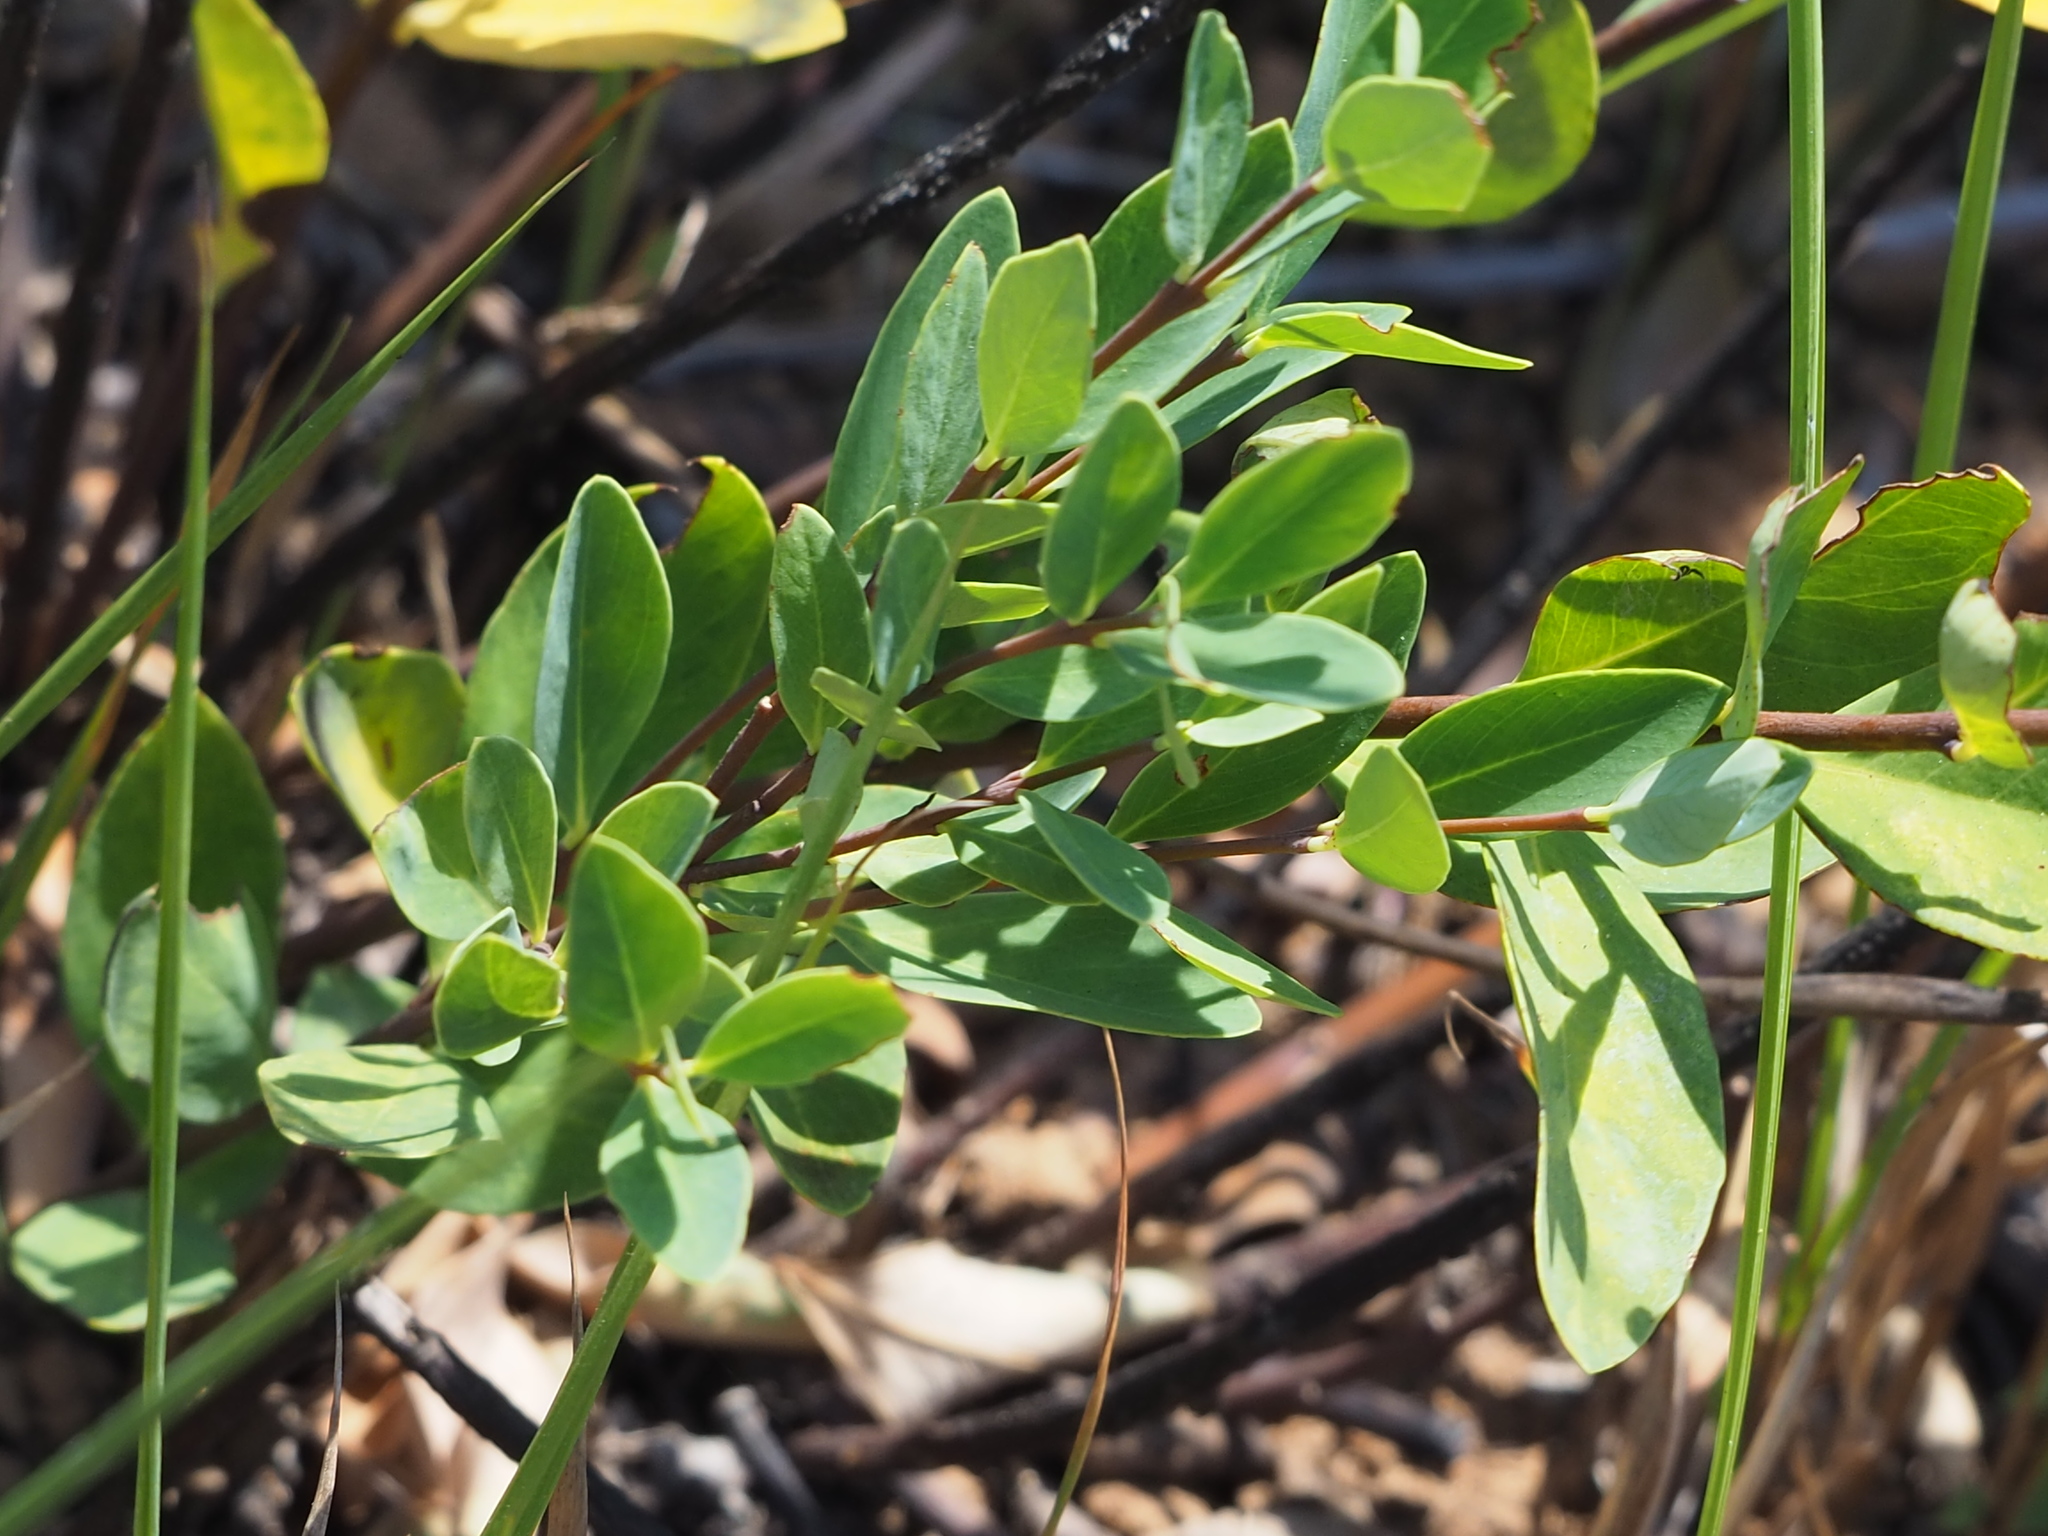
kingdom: Plantae
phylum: Tracheophyta
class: Magnoliopsida
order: Malvales
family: Thymelaeaceae
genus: Wikstroemia
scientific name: Wikstroemia indica
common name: Tiebush
